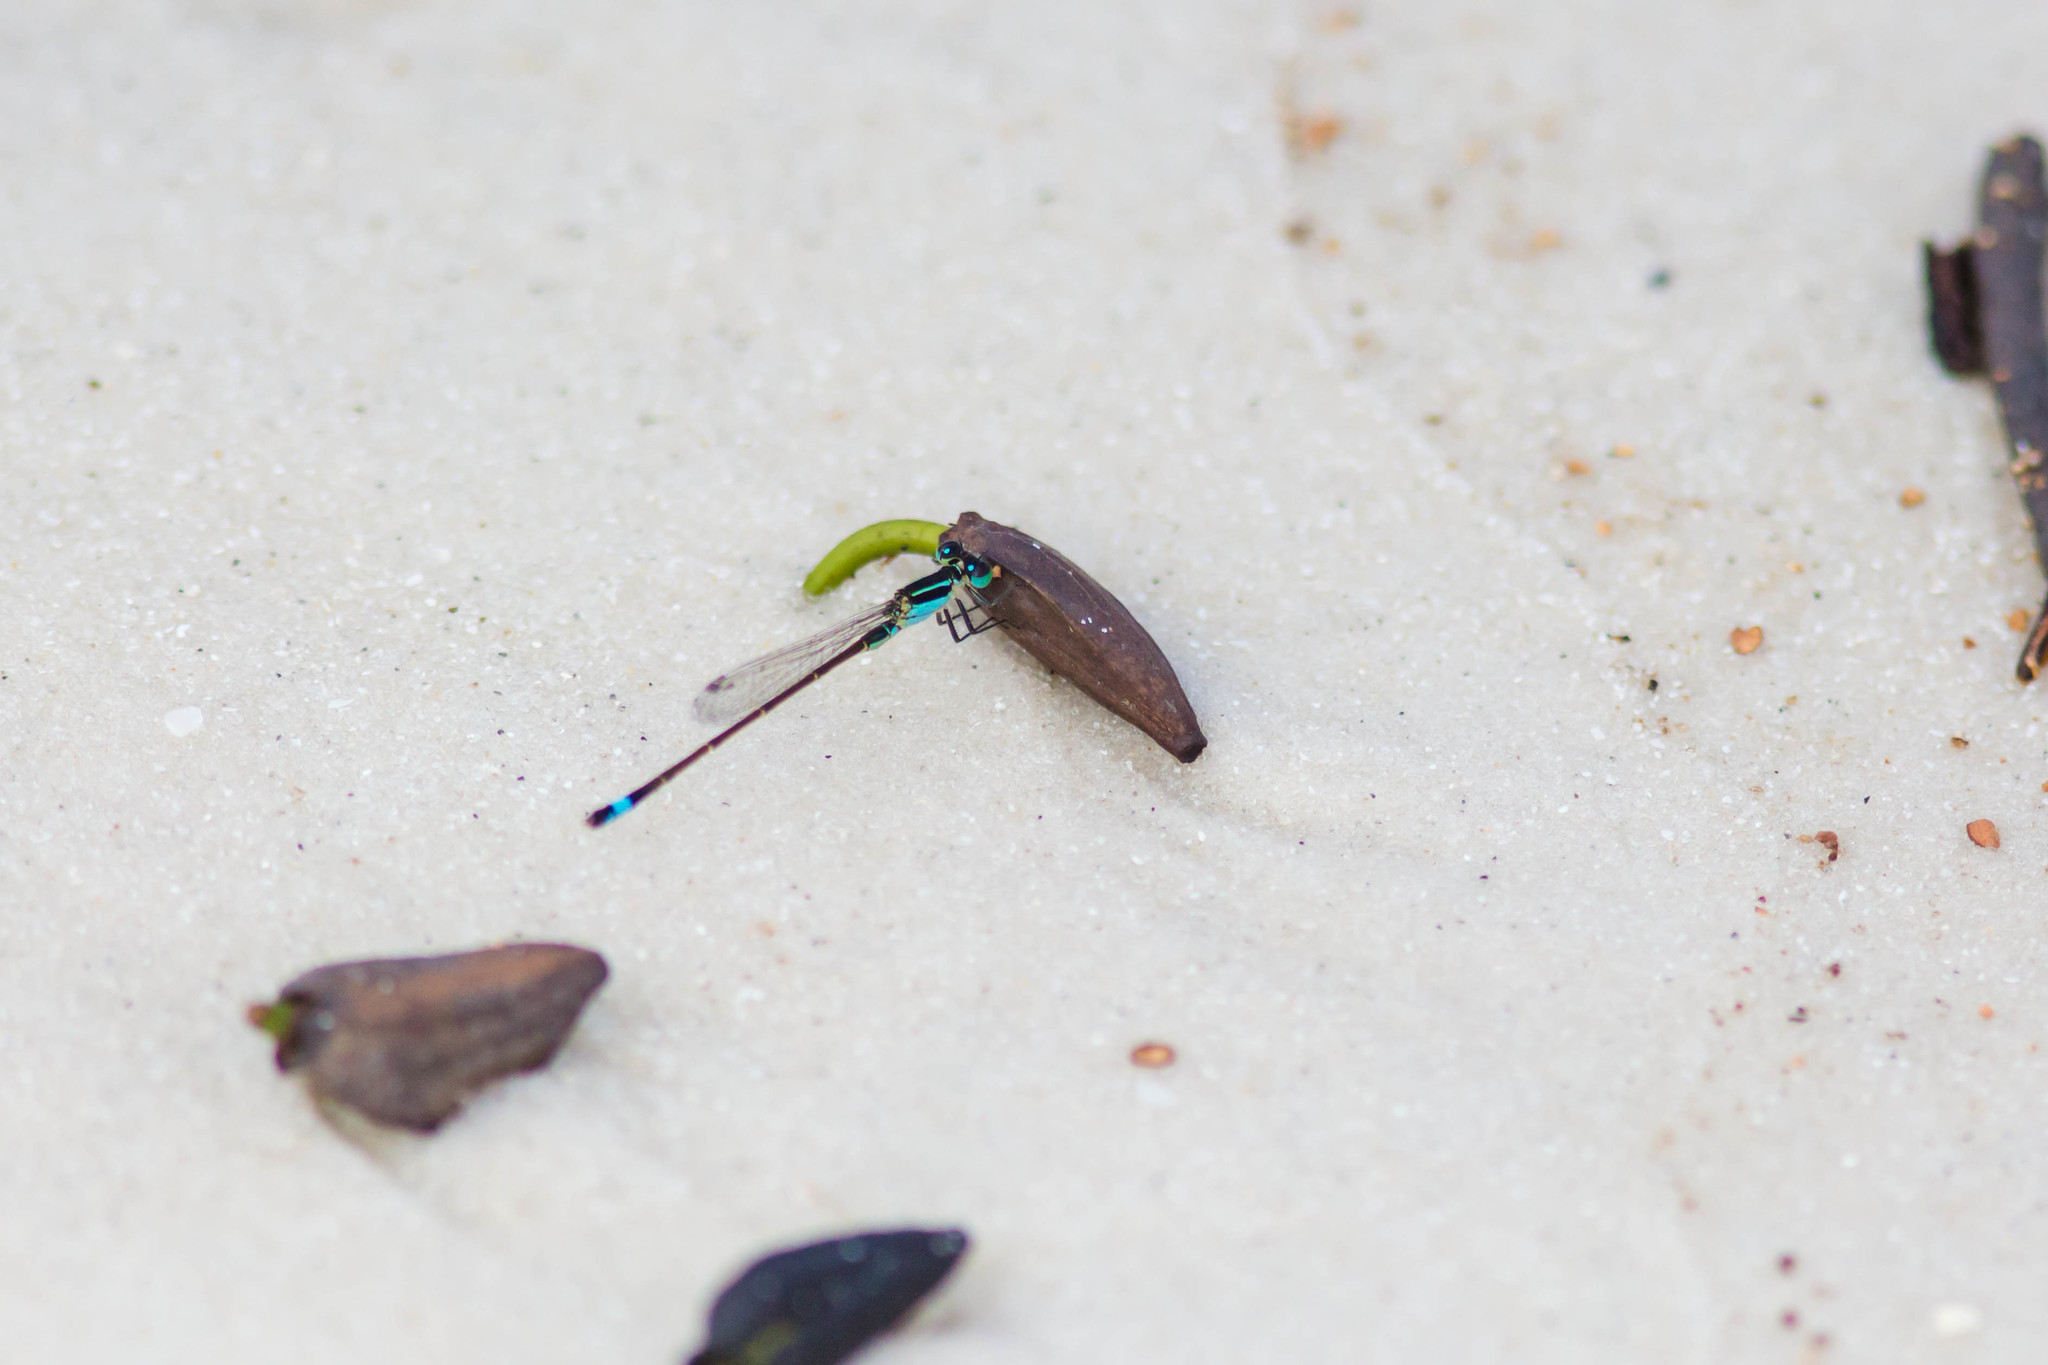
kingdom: Animalia
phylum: Arthropoda
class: Insecta
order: Odonata
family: Coenagrionidae
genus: Ischnura
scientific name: Ischnura ramburii
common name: Rambur's forktail
